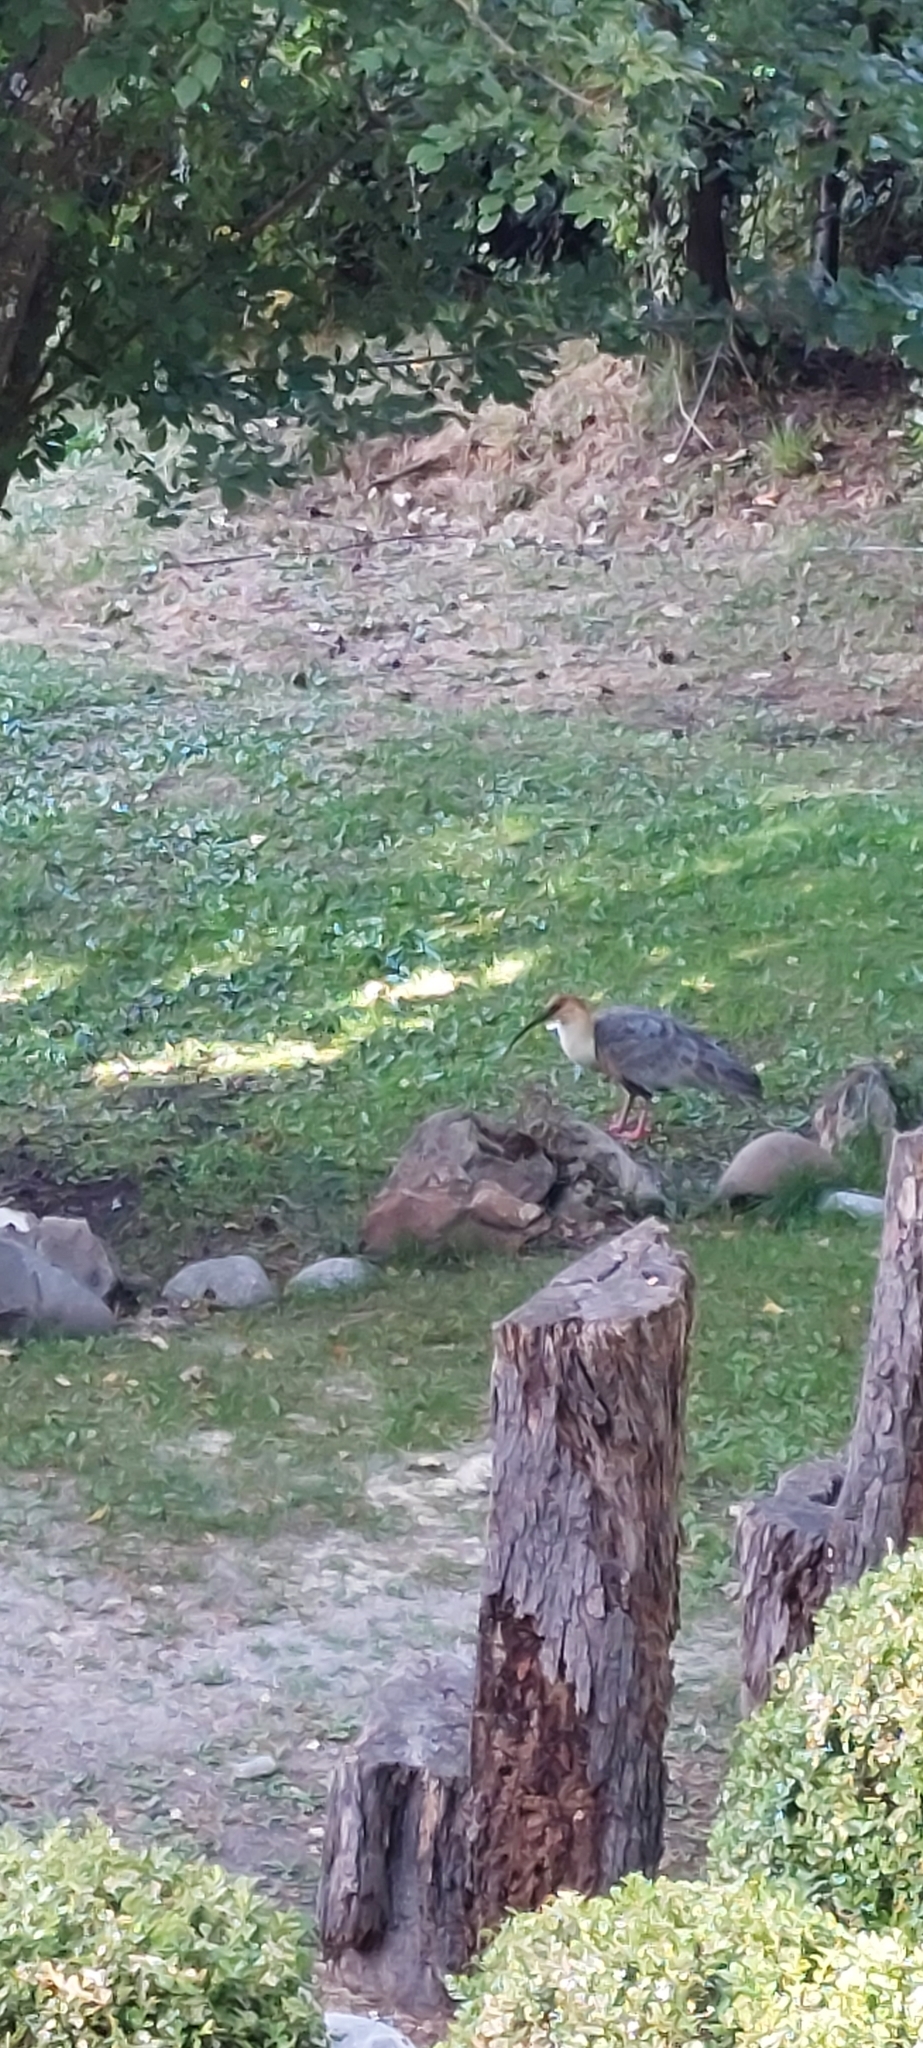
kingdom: Animalia
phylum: Chordata
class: Aves
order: Pelecaniformes
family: Threskiornithidae
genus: Theristicus
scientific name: Theristicus melanopis
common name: Black-faced ibis
